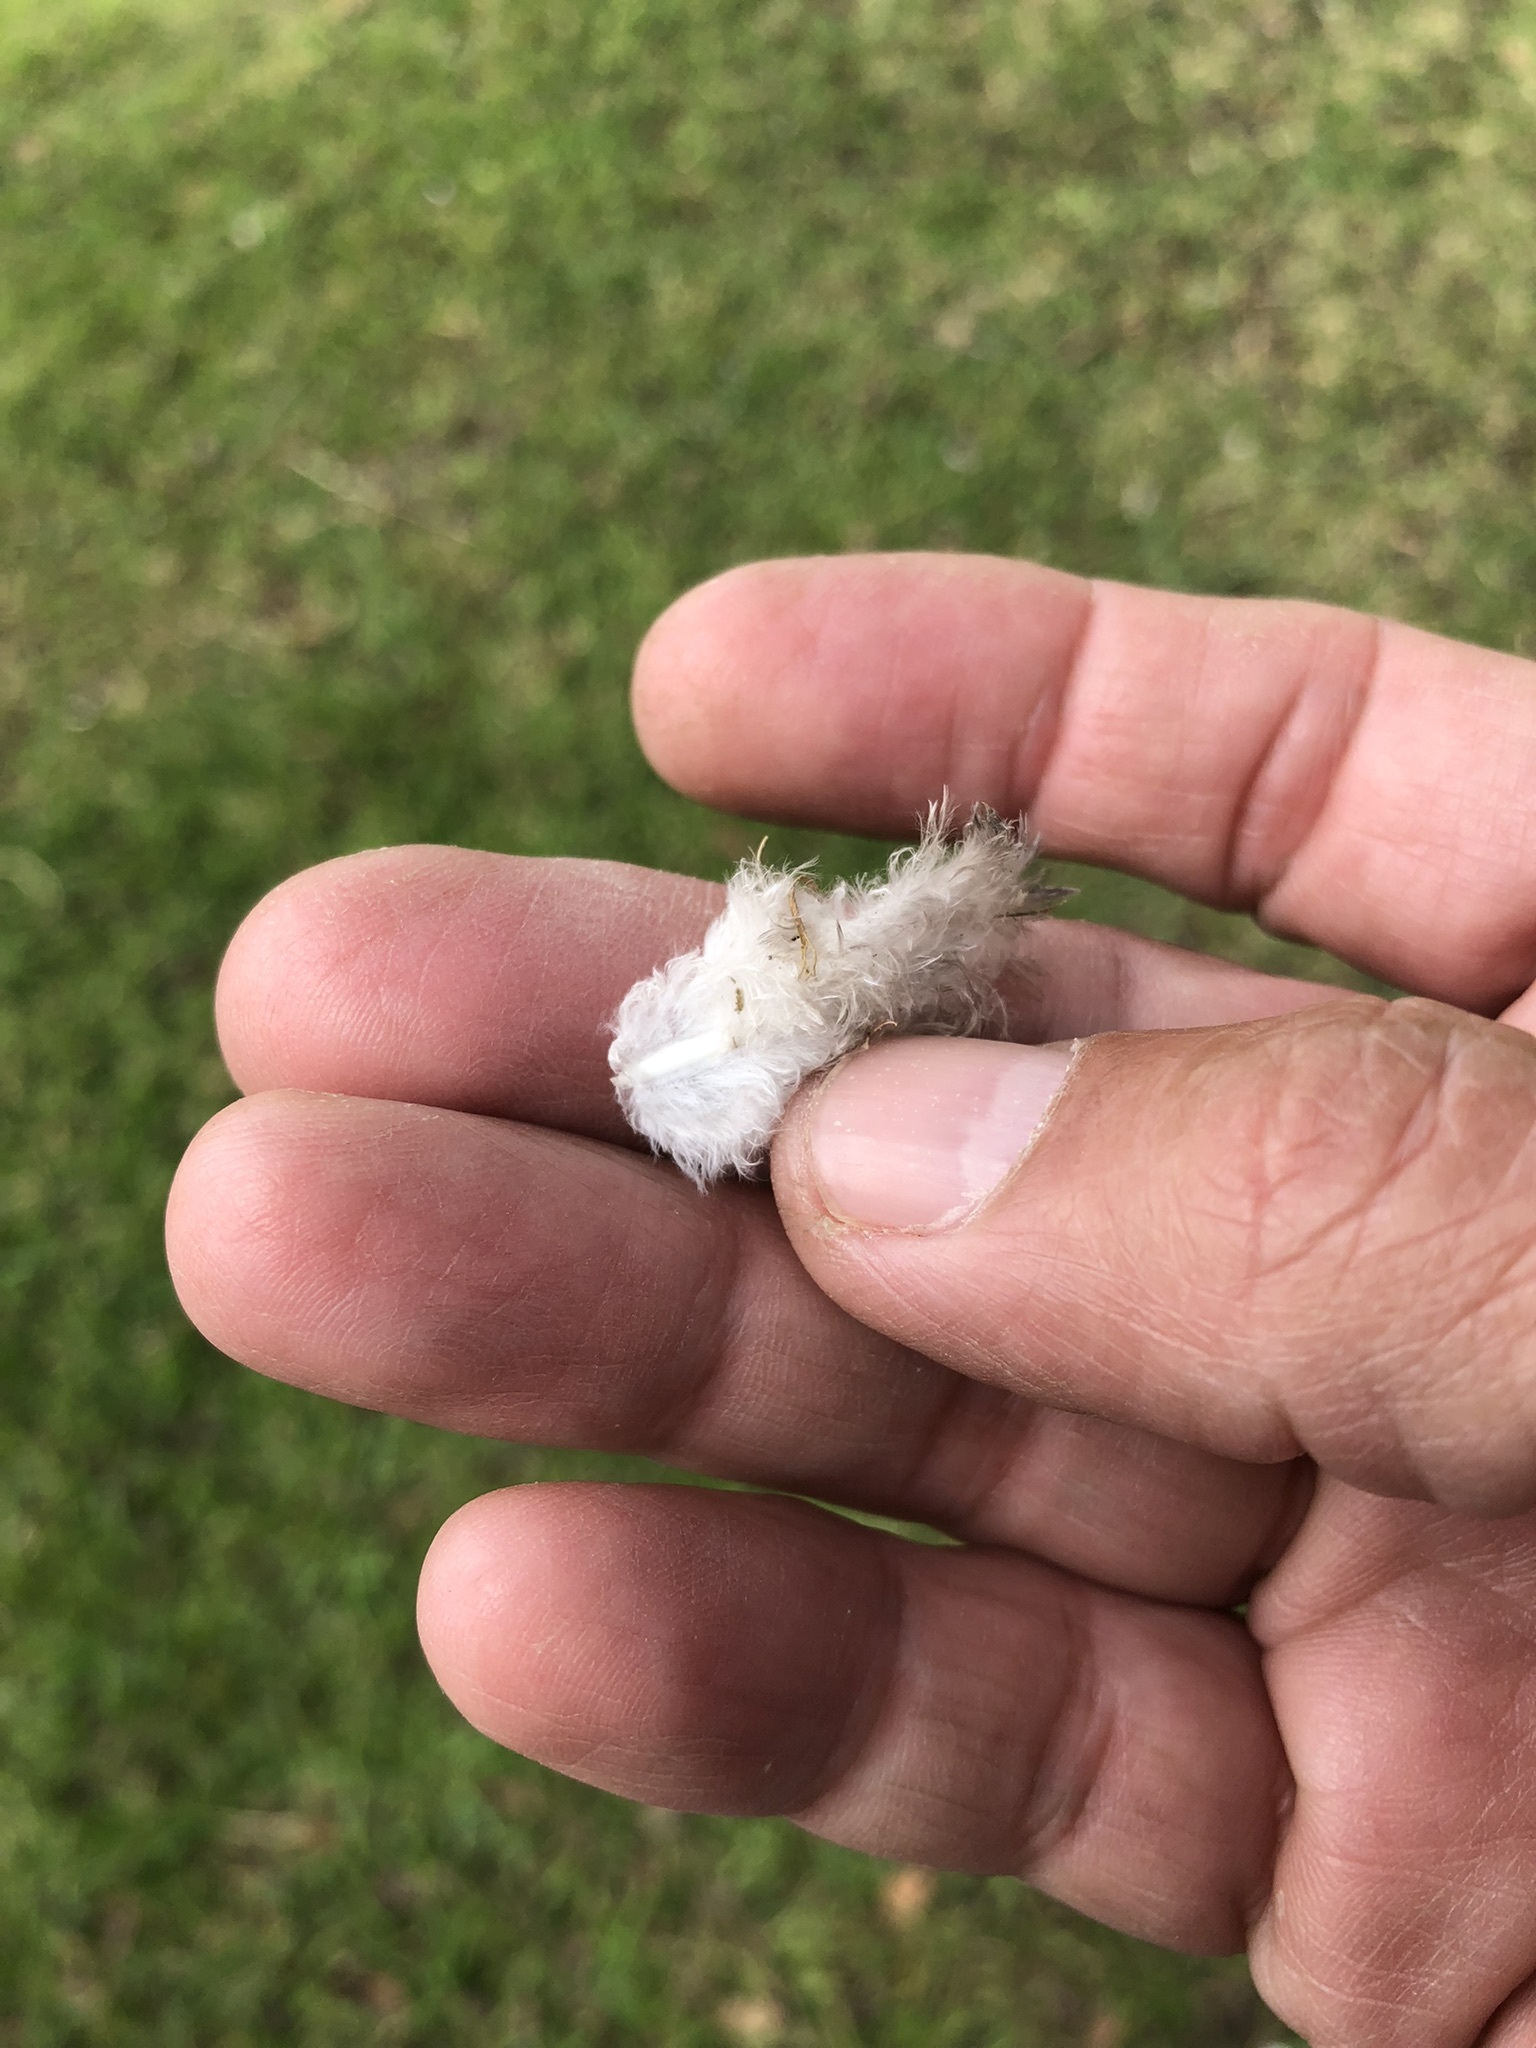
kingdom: Animalia
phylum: Chordata
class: Aves
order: Columbiformes
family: Columbidae
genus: Zenaida
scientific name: Zenaida meloda
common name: West peruvian dove
